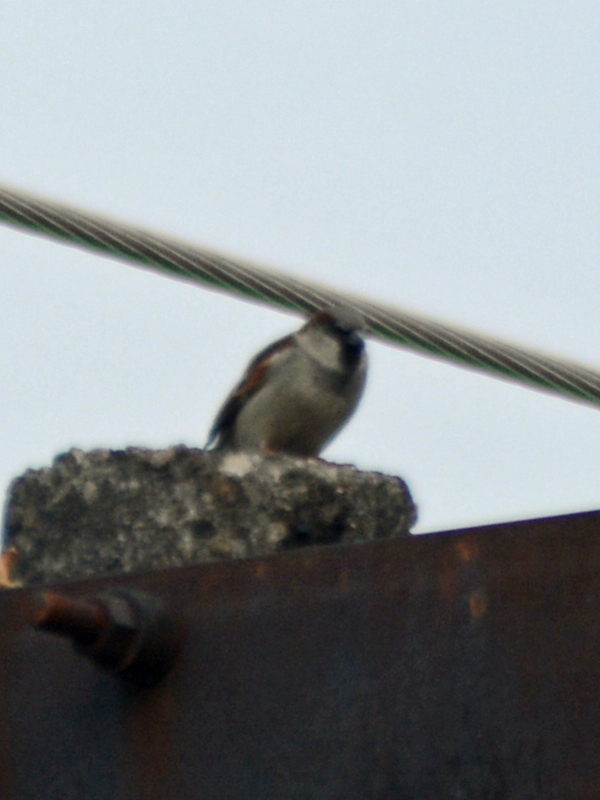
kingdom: Animalia
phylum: Chordata
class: Aves
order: Passeriformes
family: Passeridae
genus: Passer
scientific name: Passer domesticus
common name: House sparrow
